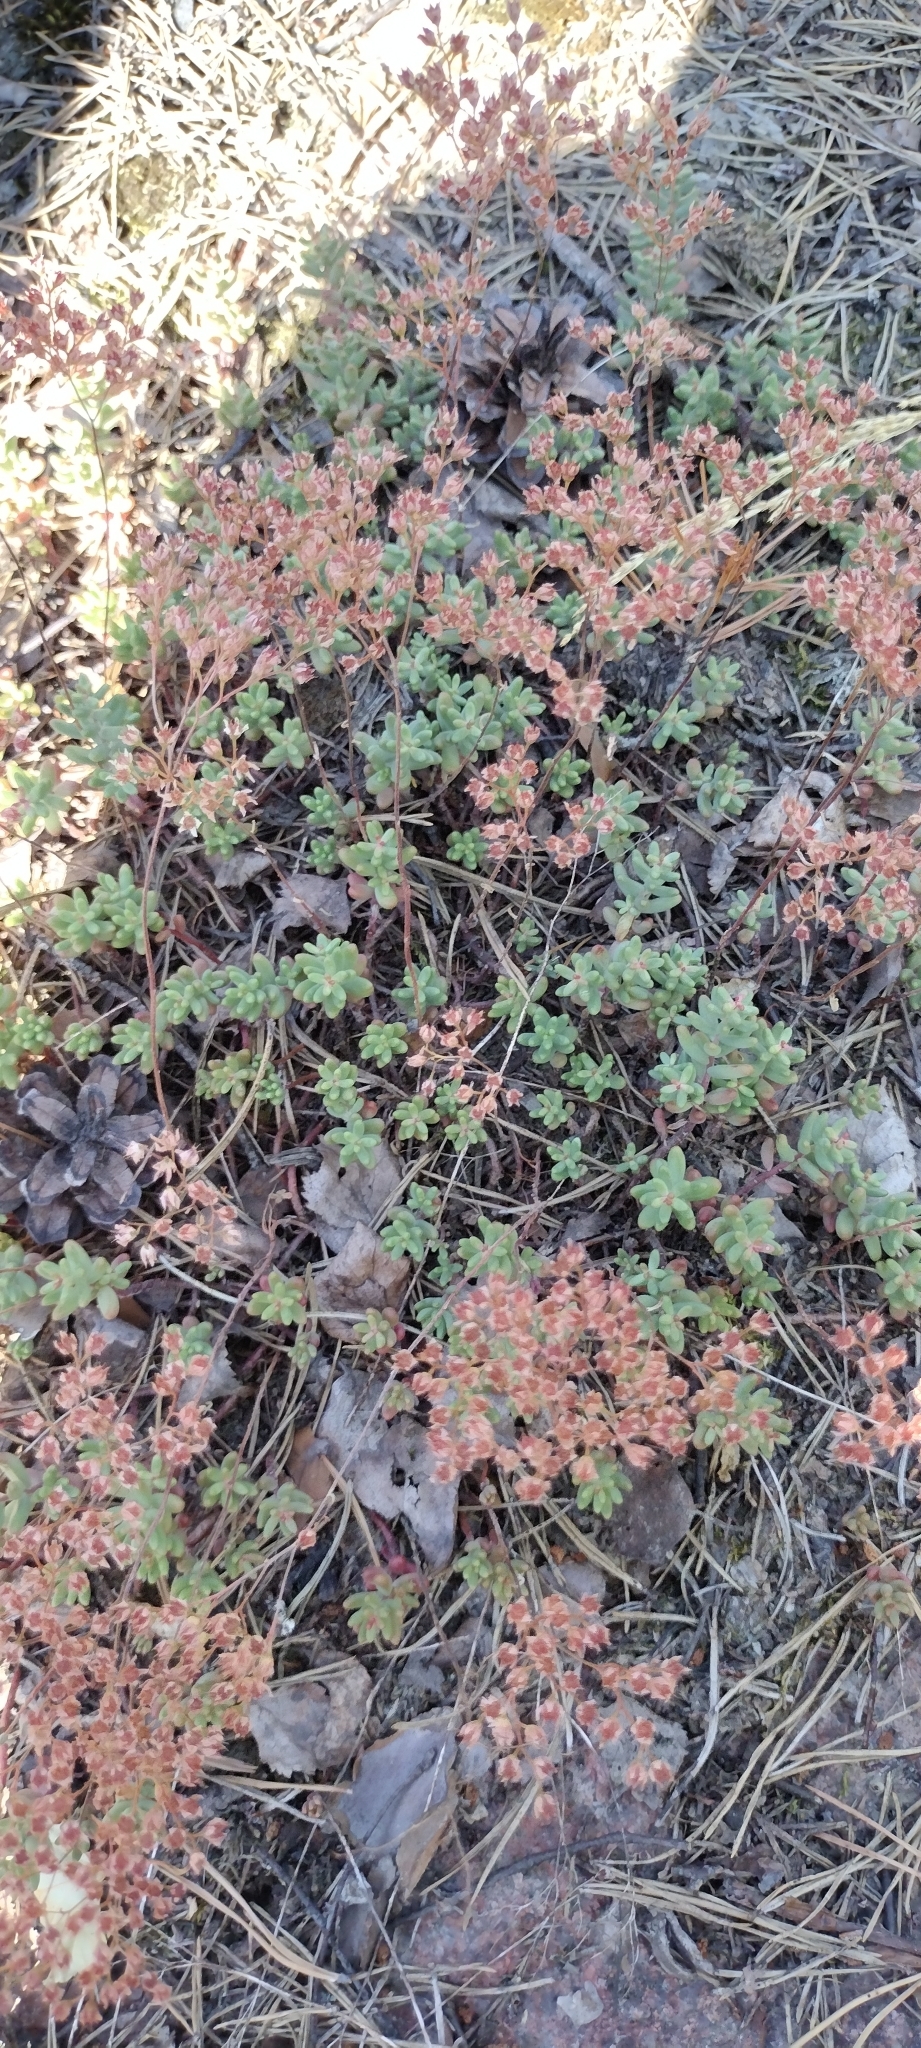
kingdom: Plantae
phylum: Tracheophyta
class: Magnoliopsida
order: Saxifragales
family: Crassulaceae
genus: Sedum
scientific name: Sedum album
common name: White stonecrop
